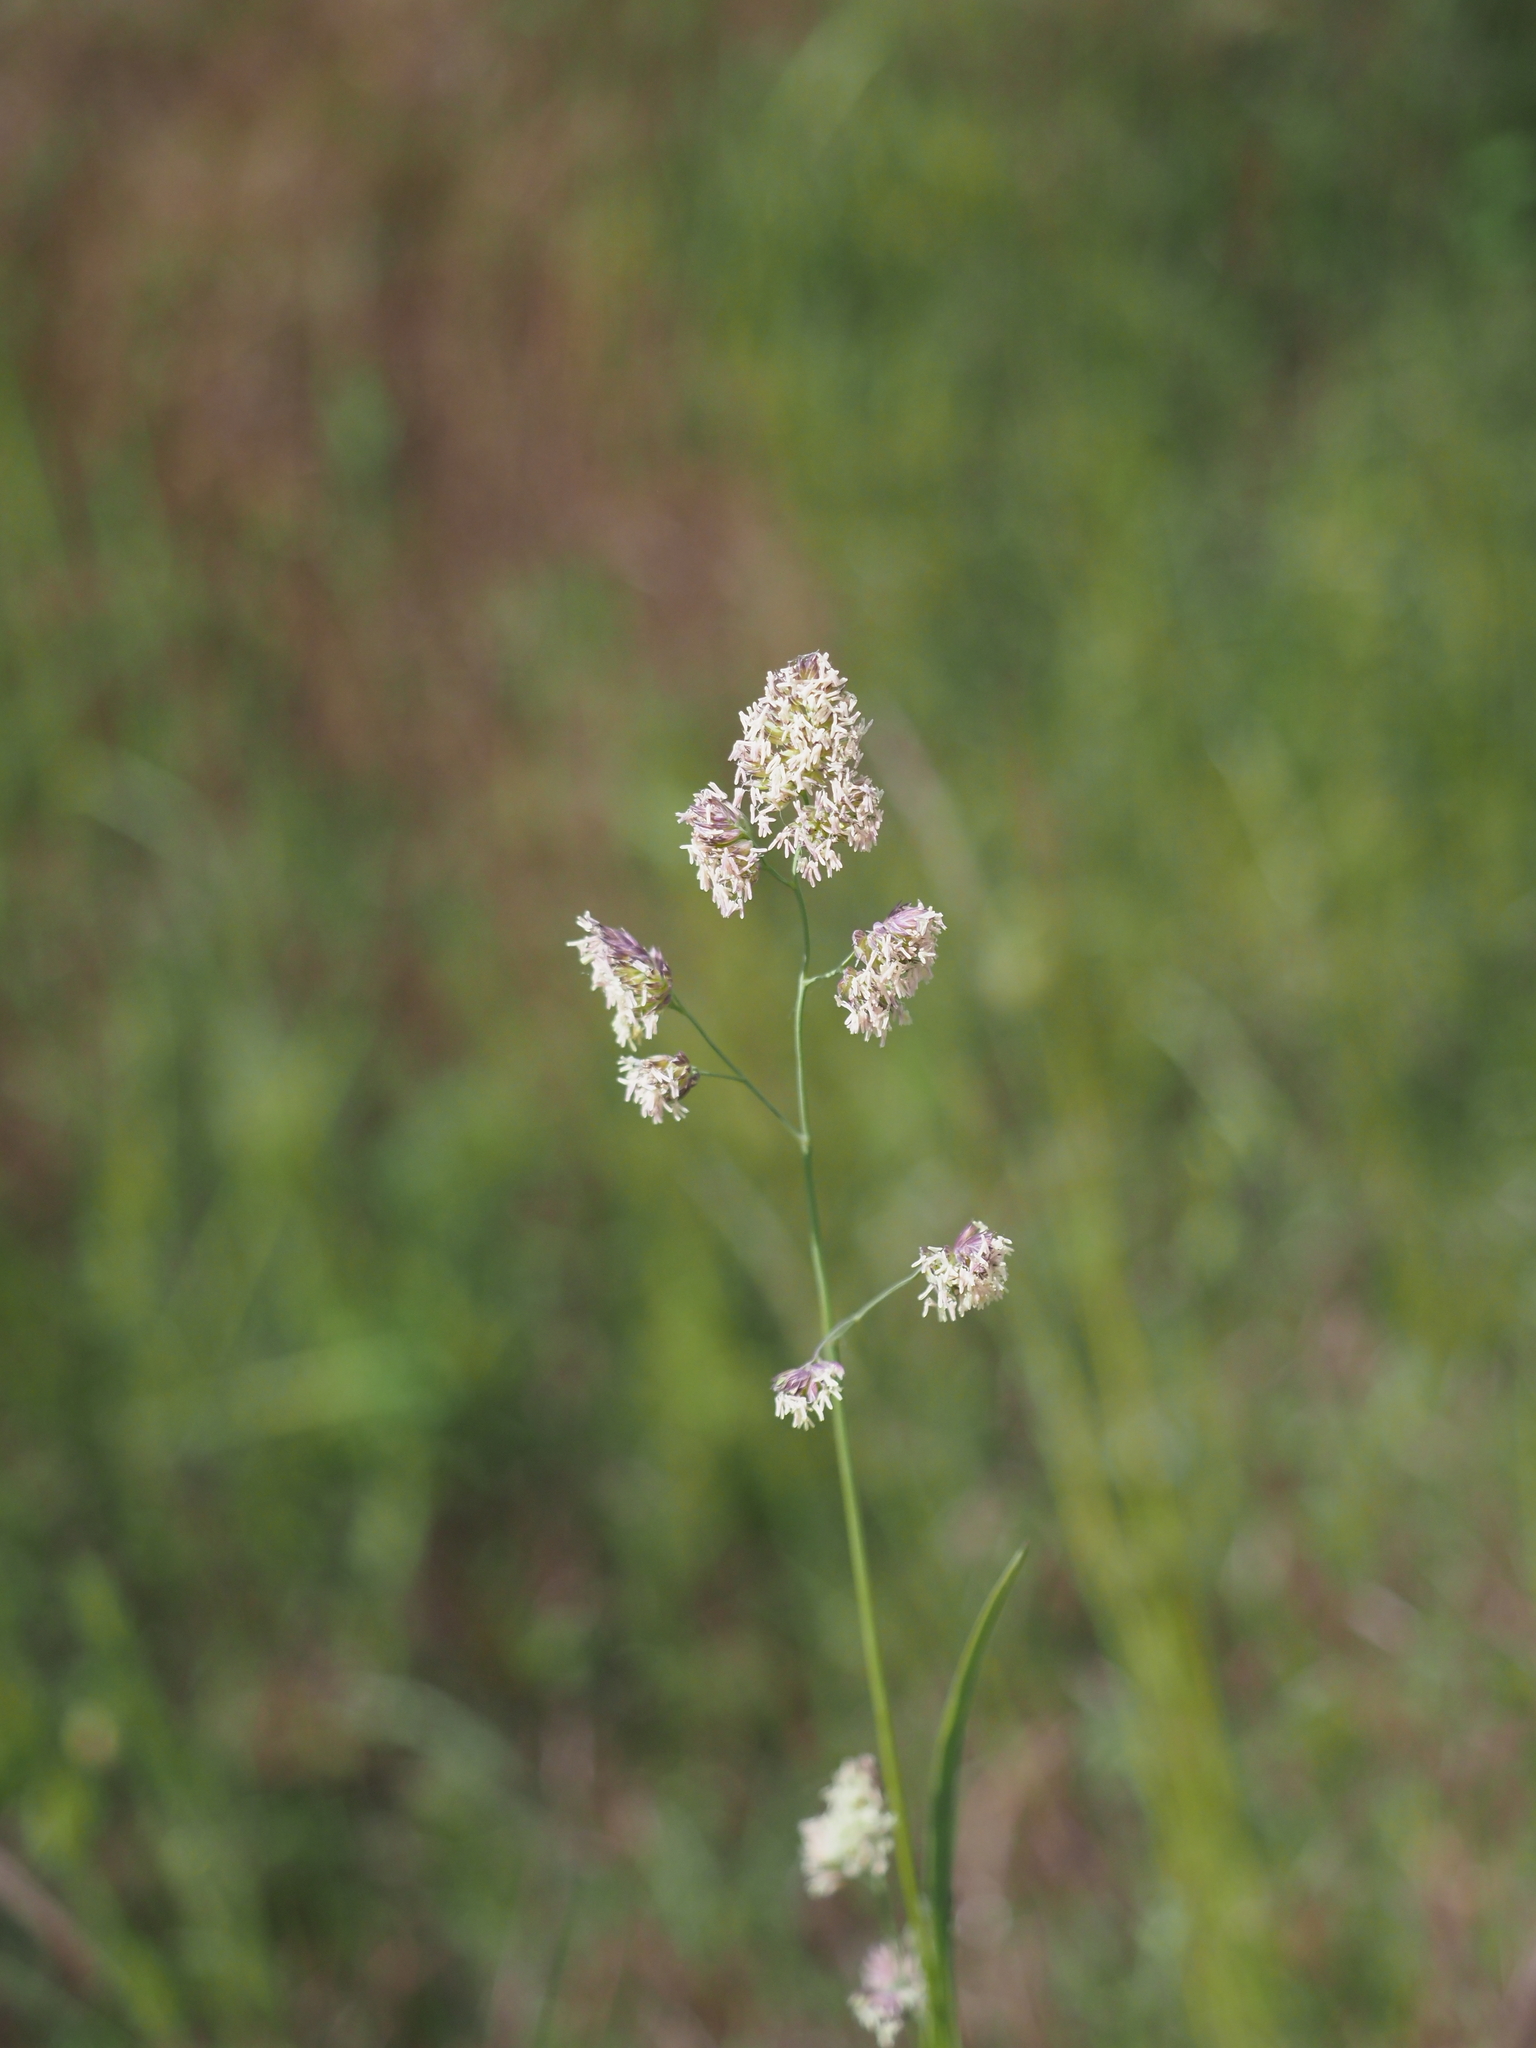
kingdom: Plantae
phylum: Tracheophyta
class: Liliopsida
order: Poales
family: Poaceae
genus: Dactylis
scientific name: Dactylis glomerata
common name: Orchardgrass
